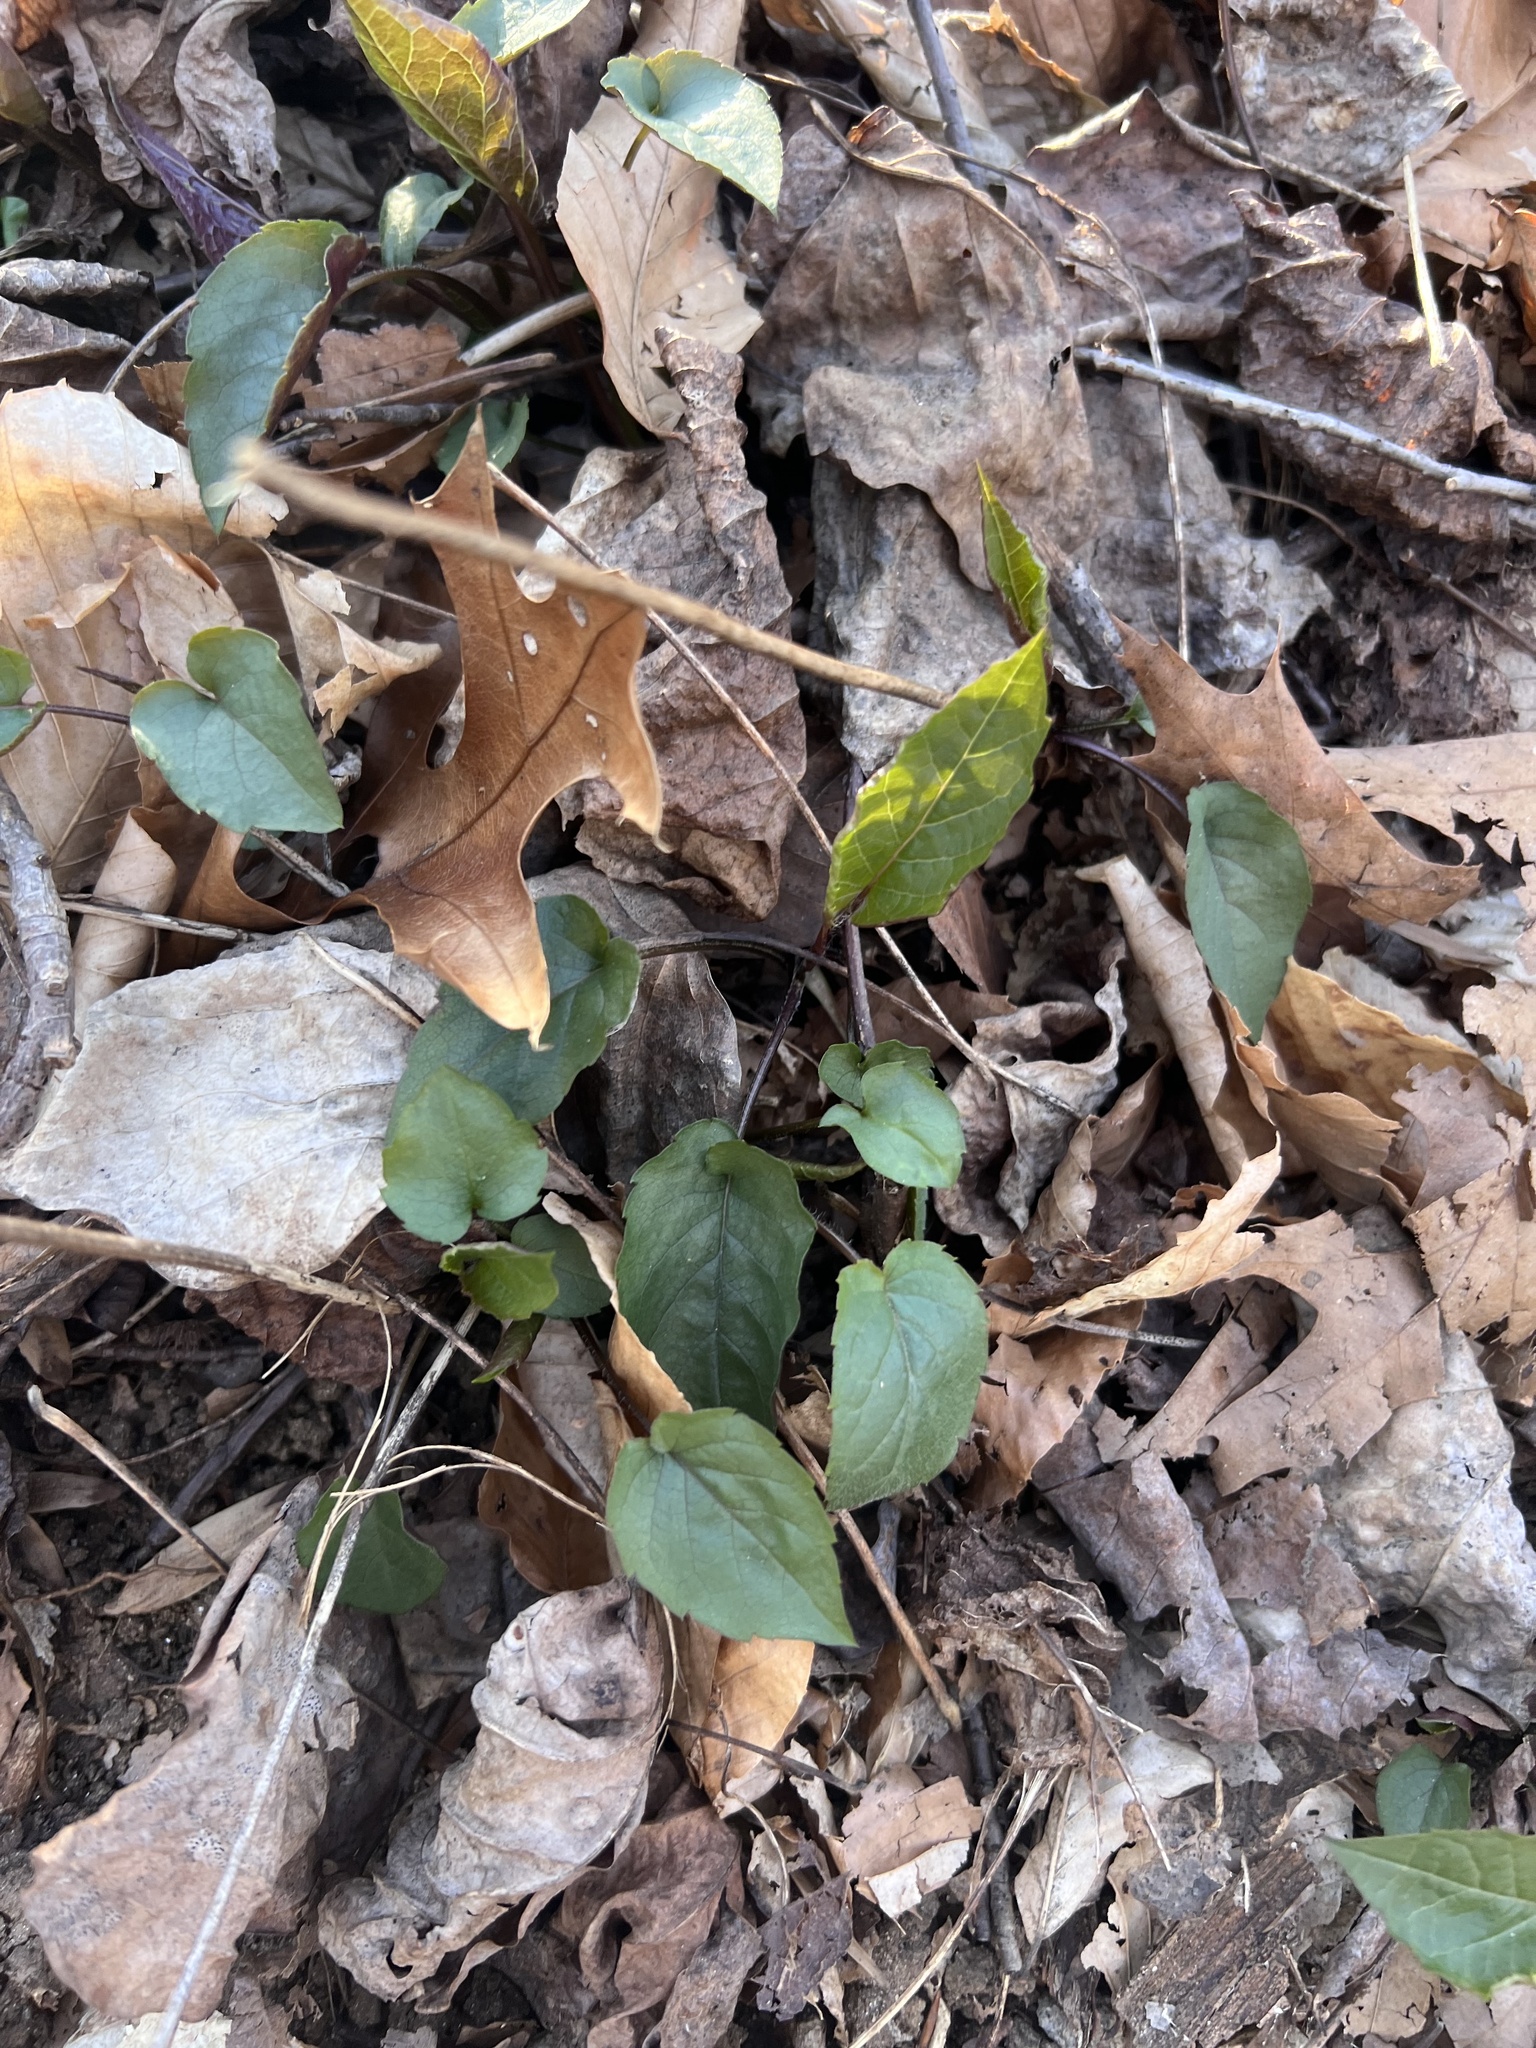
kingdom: Plantae
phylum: Tracheophyta
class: Magnoliopsida
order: Asterales
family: Asteraceae
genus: Eurybia
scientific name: Eurybia divaricata
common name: White wood aster
